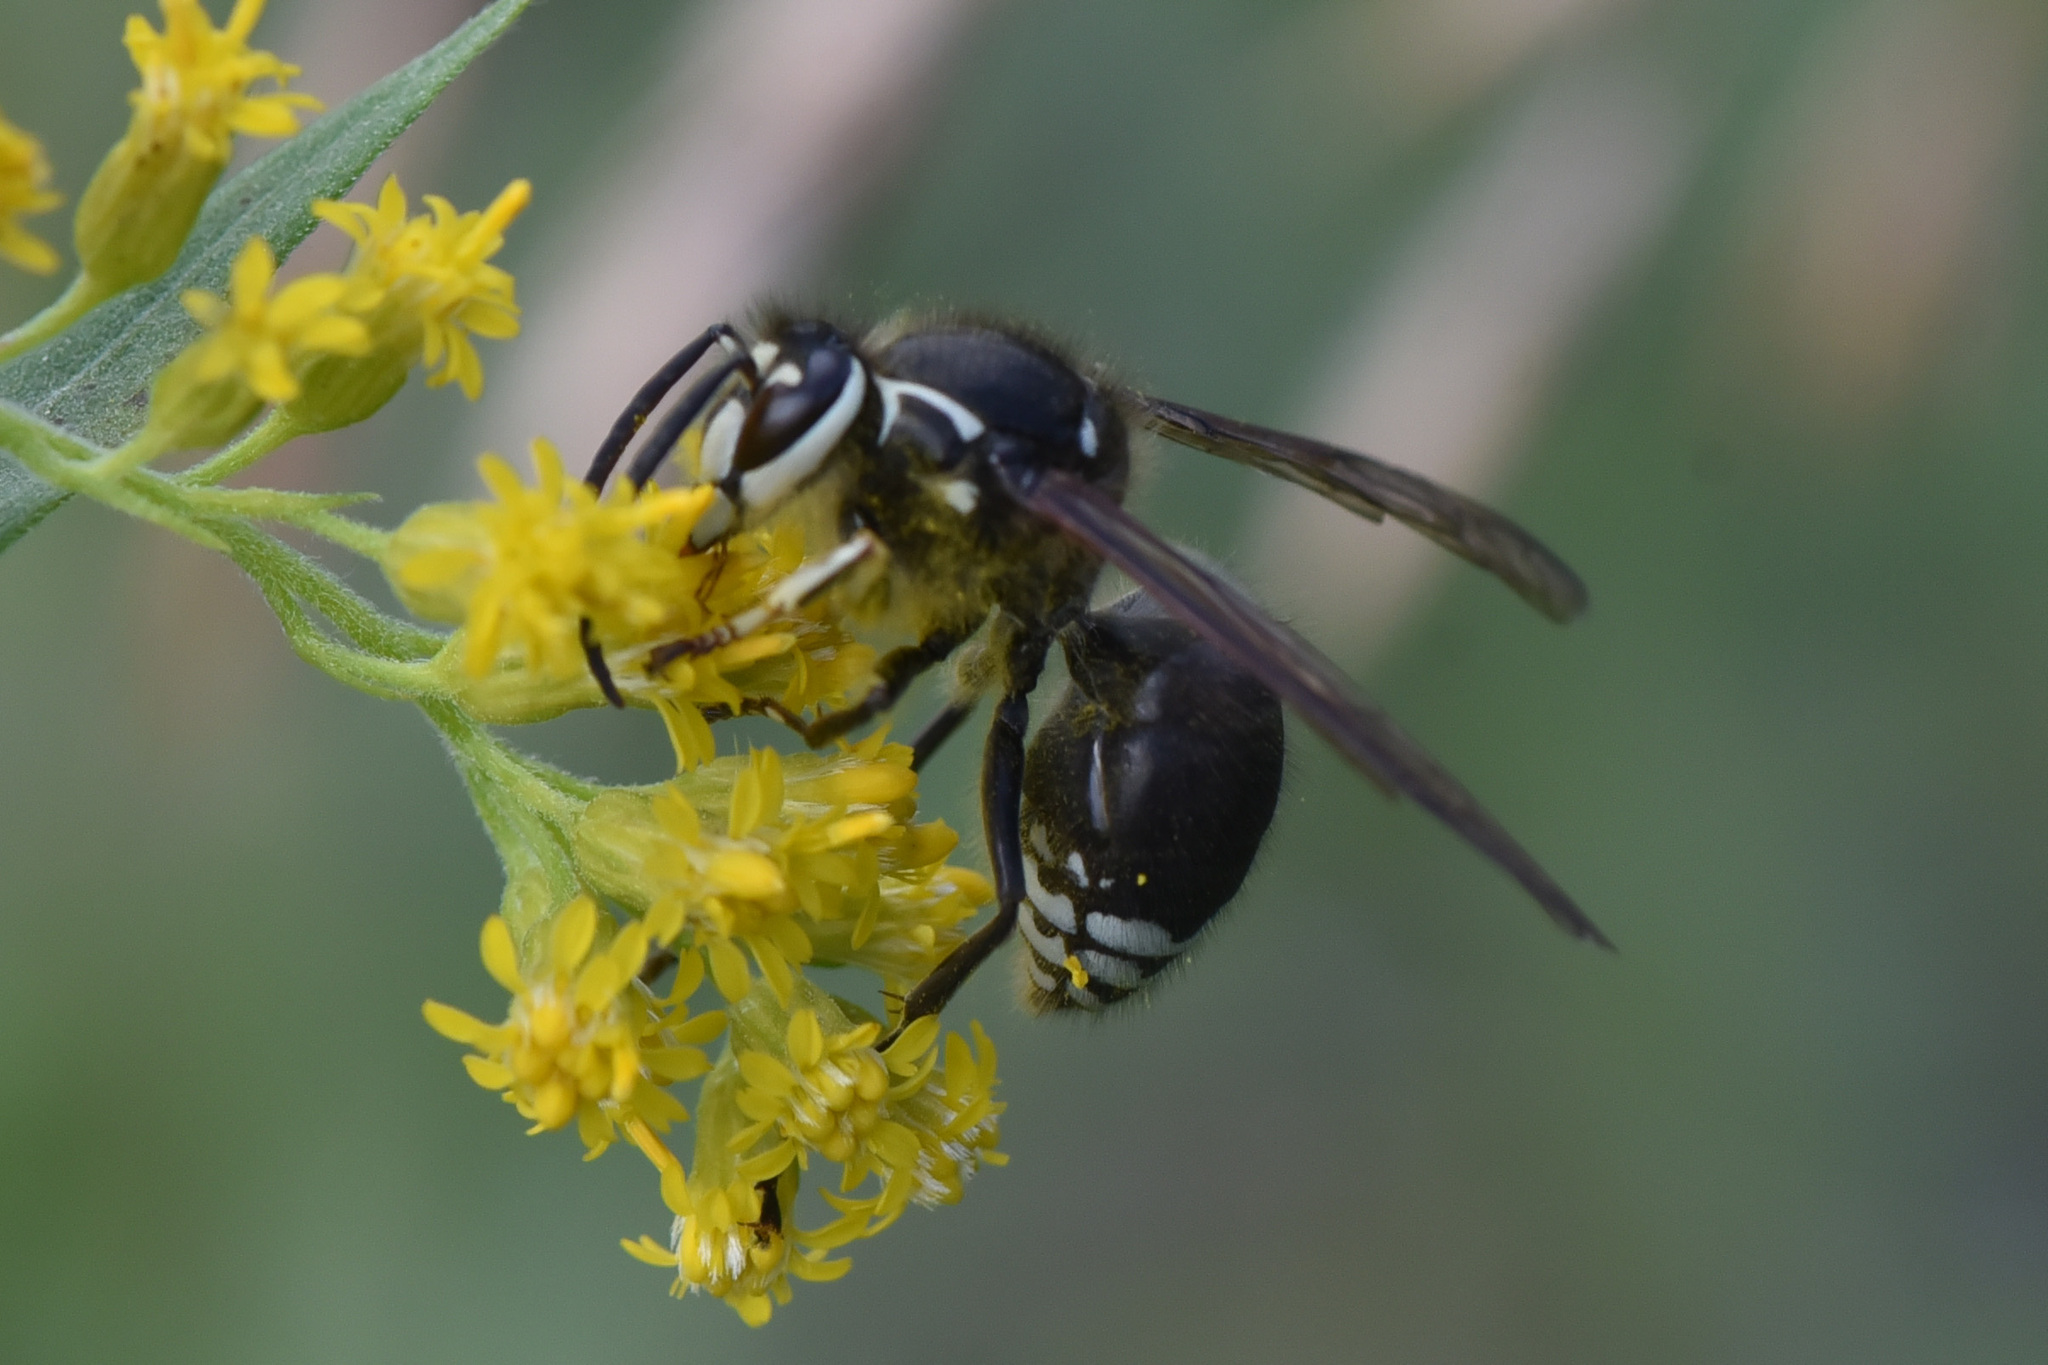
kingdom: Animalia
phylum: Arthropoda
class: Insecta
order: Hymenoptera
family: Vespidae
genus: Dolichovespula
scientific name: Dolichovespula maculata
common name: Bald-faced hornet
